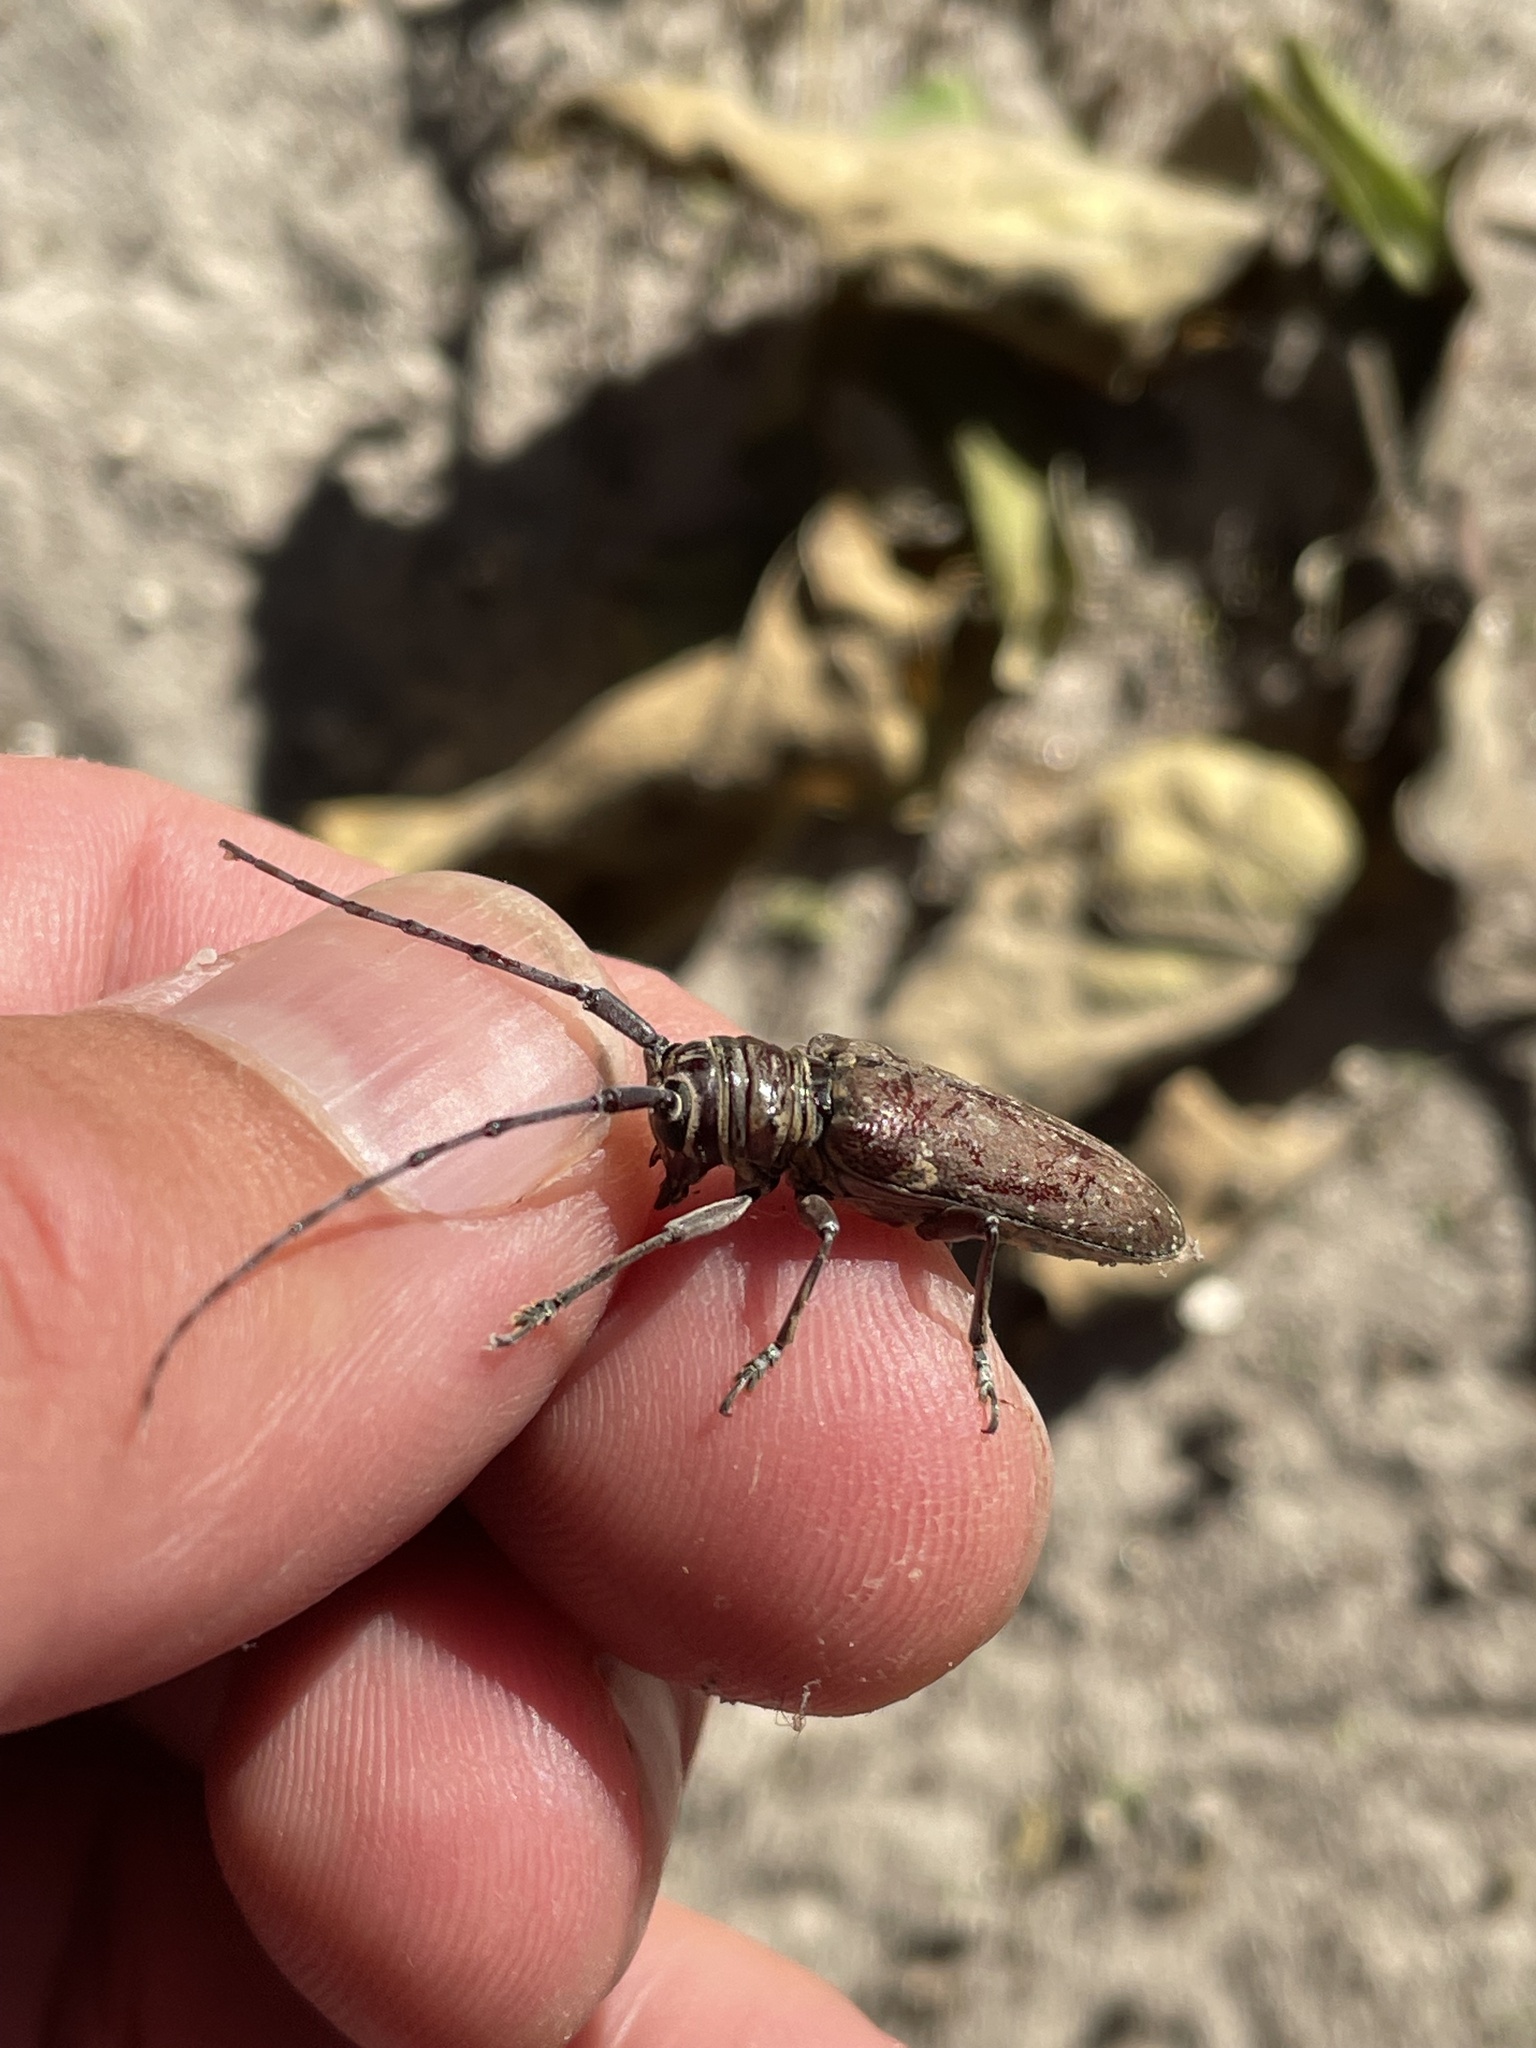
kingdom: Animalia
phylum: Arthropoda
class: Insecta
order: Coleoptera
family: Cerambycidae
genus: Prosopocera
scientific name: Prosopocera dejeani
